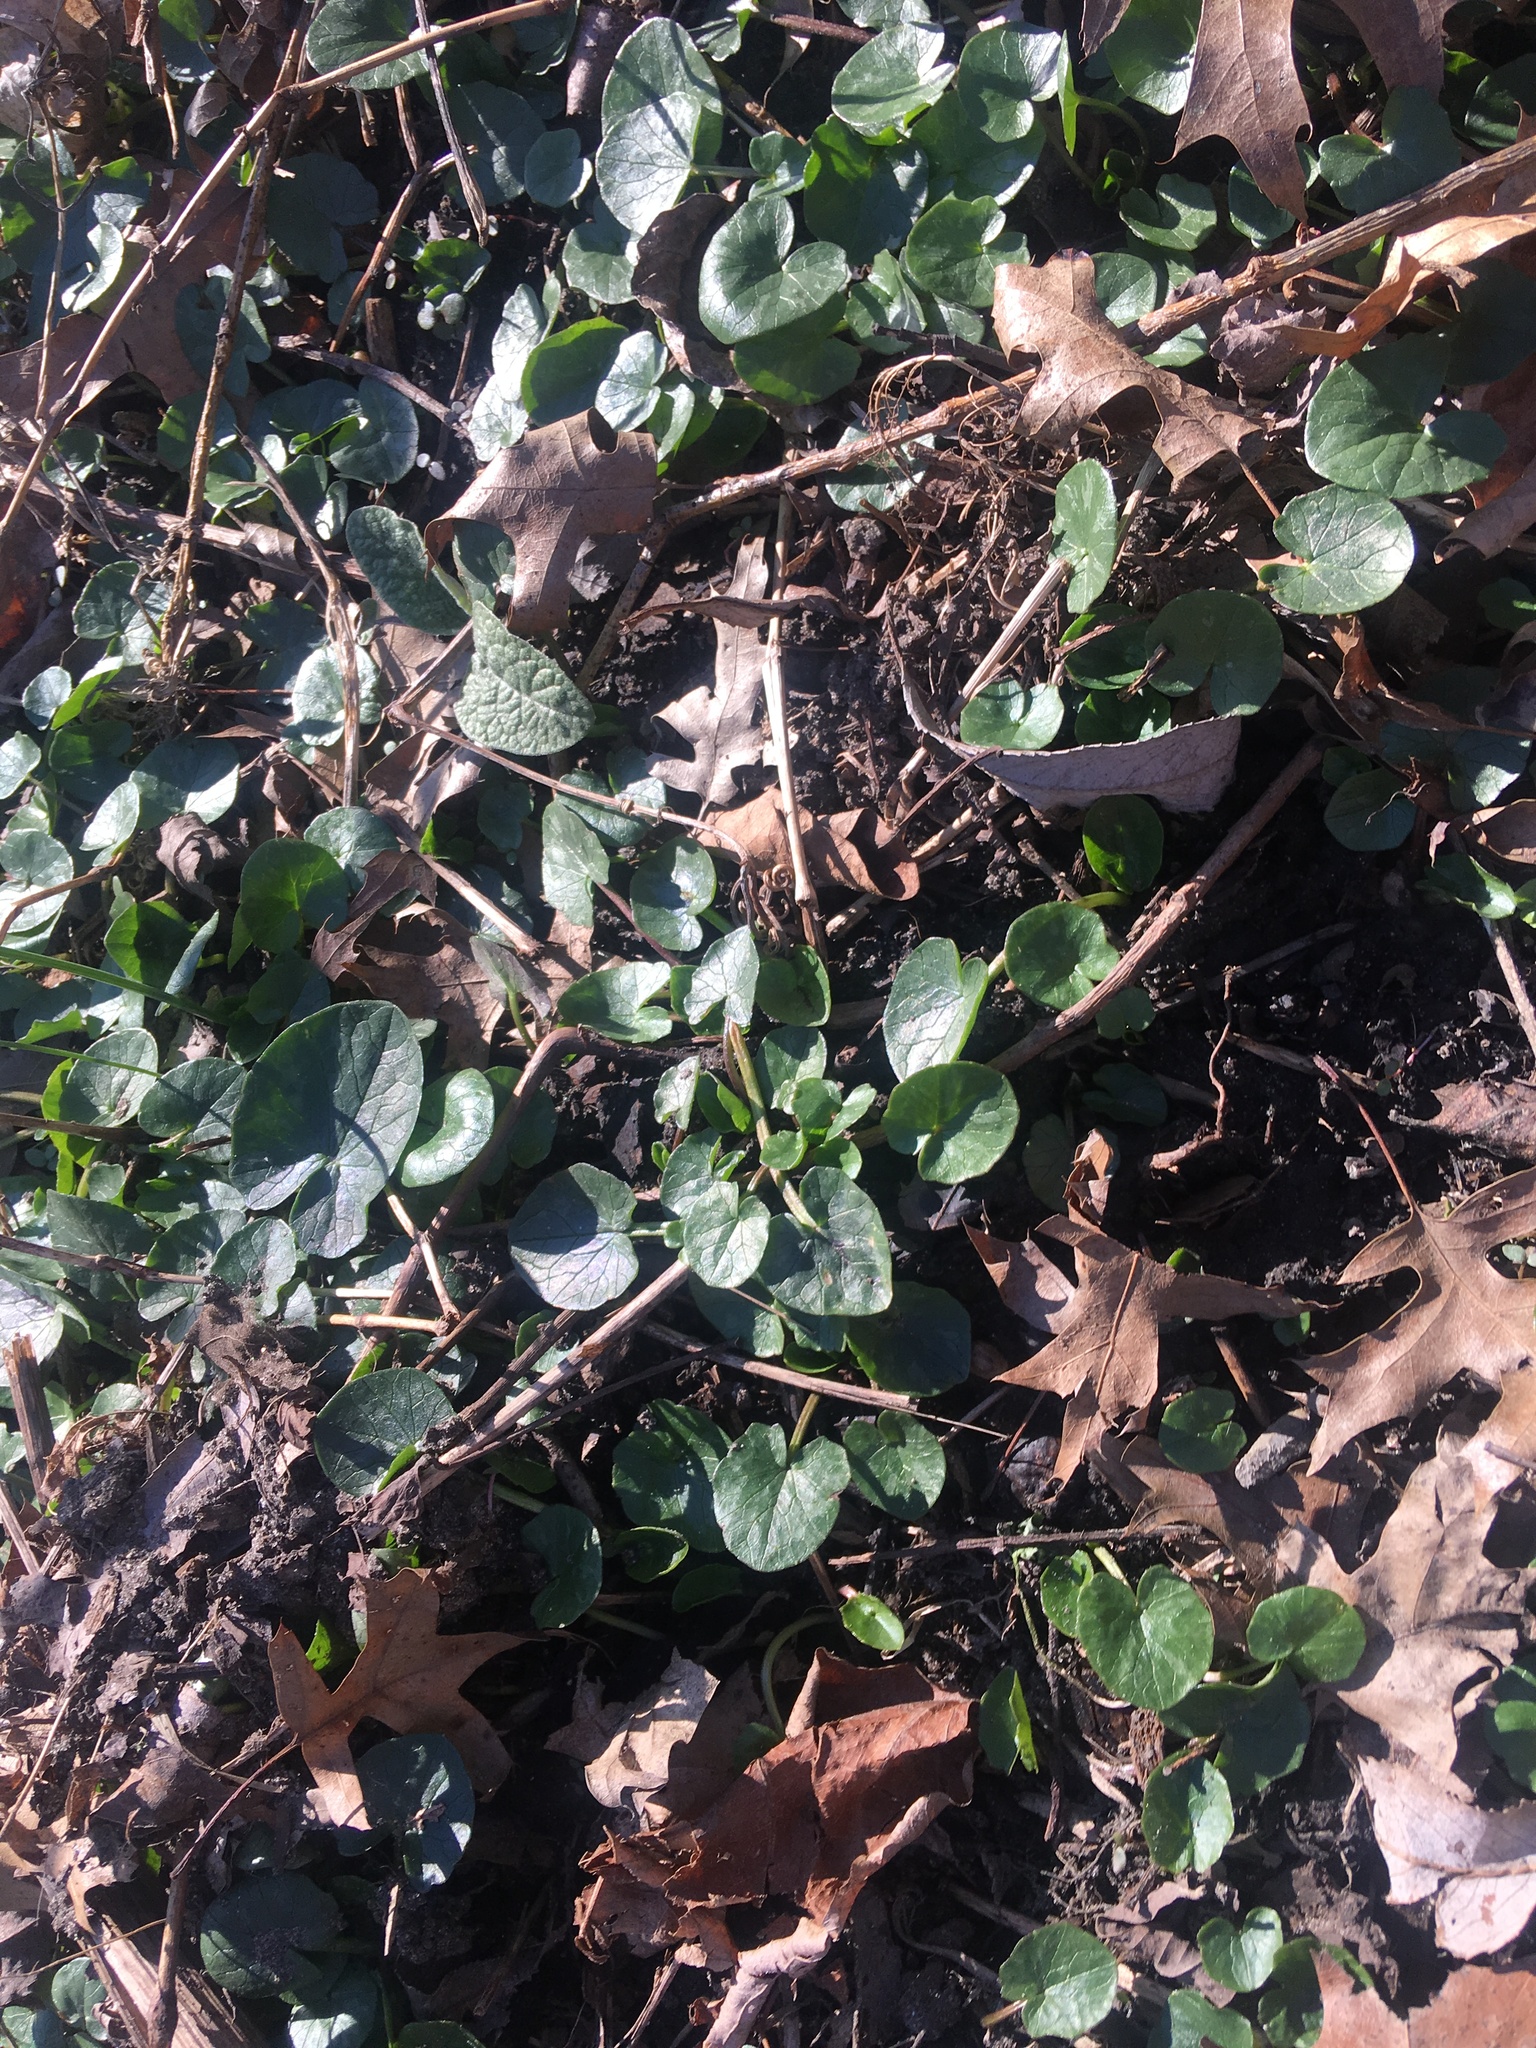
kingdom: Plantae
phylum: Tracheophyta
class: Magnoliopsida
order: Ranunculales
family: Ranunculaceae
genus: Ficaria
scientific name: Ficaria verna
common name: Lesser celandine
